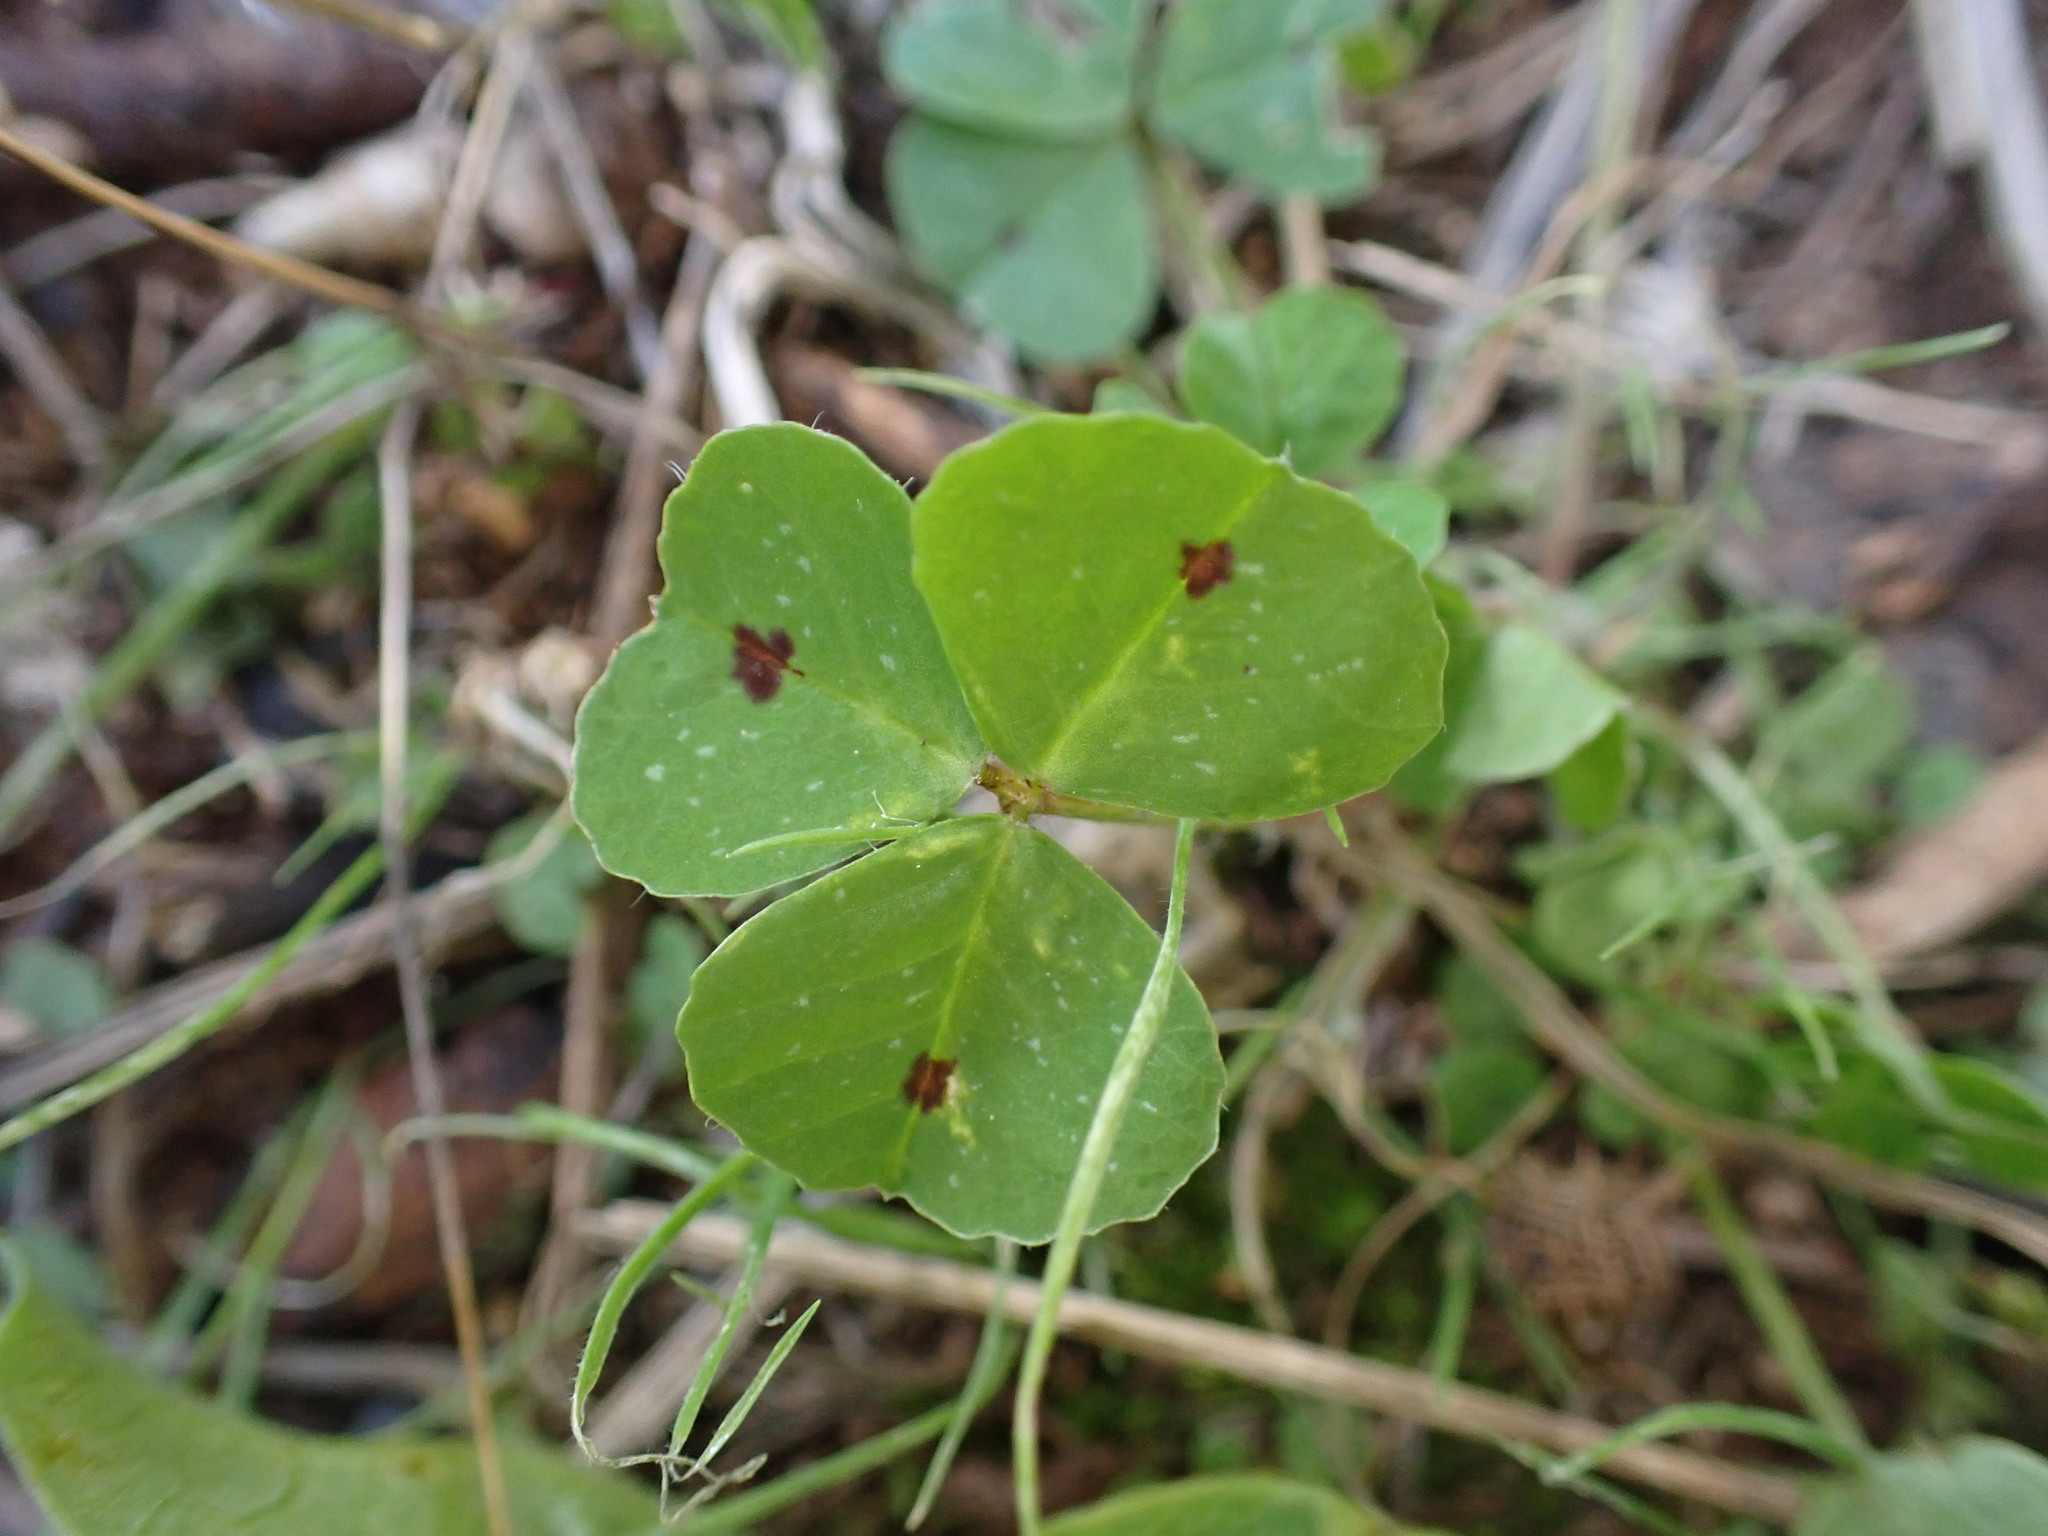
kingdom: Plantae
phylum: Tracheophyta
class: Magnoliopsida
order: Fabales
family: Fabaceae
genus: Medicago
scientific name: Medicago arabica
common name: Spotted medick
